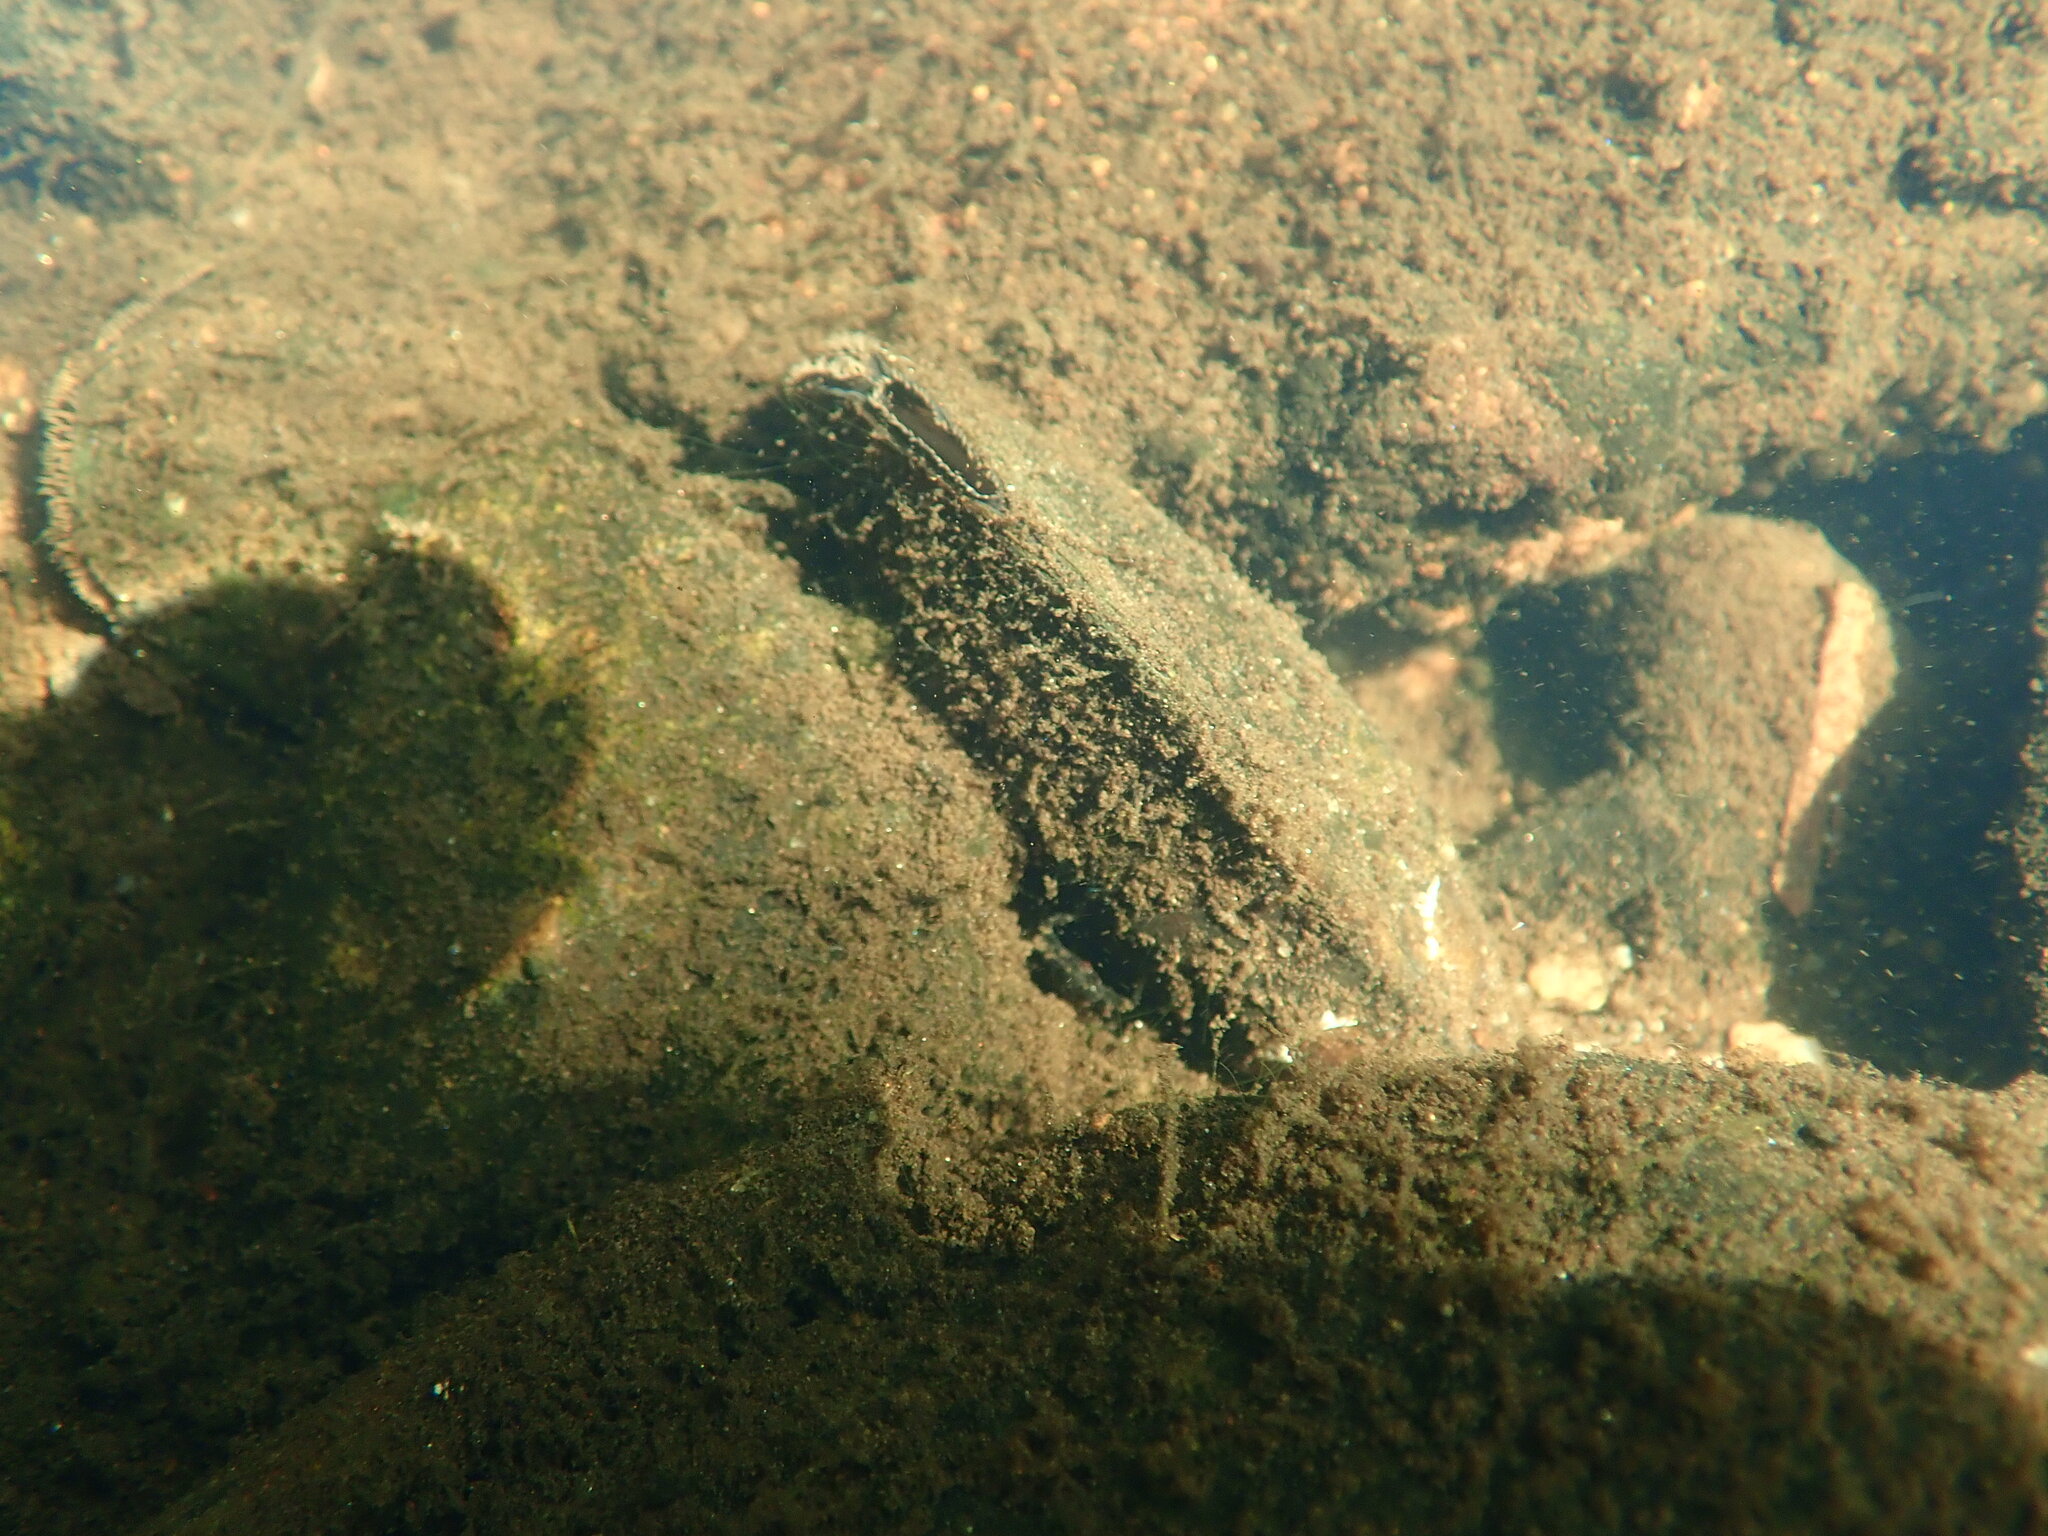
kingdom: Animalia
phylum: Mollusca
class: Bivalvia
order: Unionida
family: Unionidae
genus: Elliptio
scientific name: Elliptio complanata
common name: Eastern elliptio
